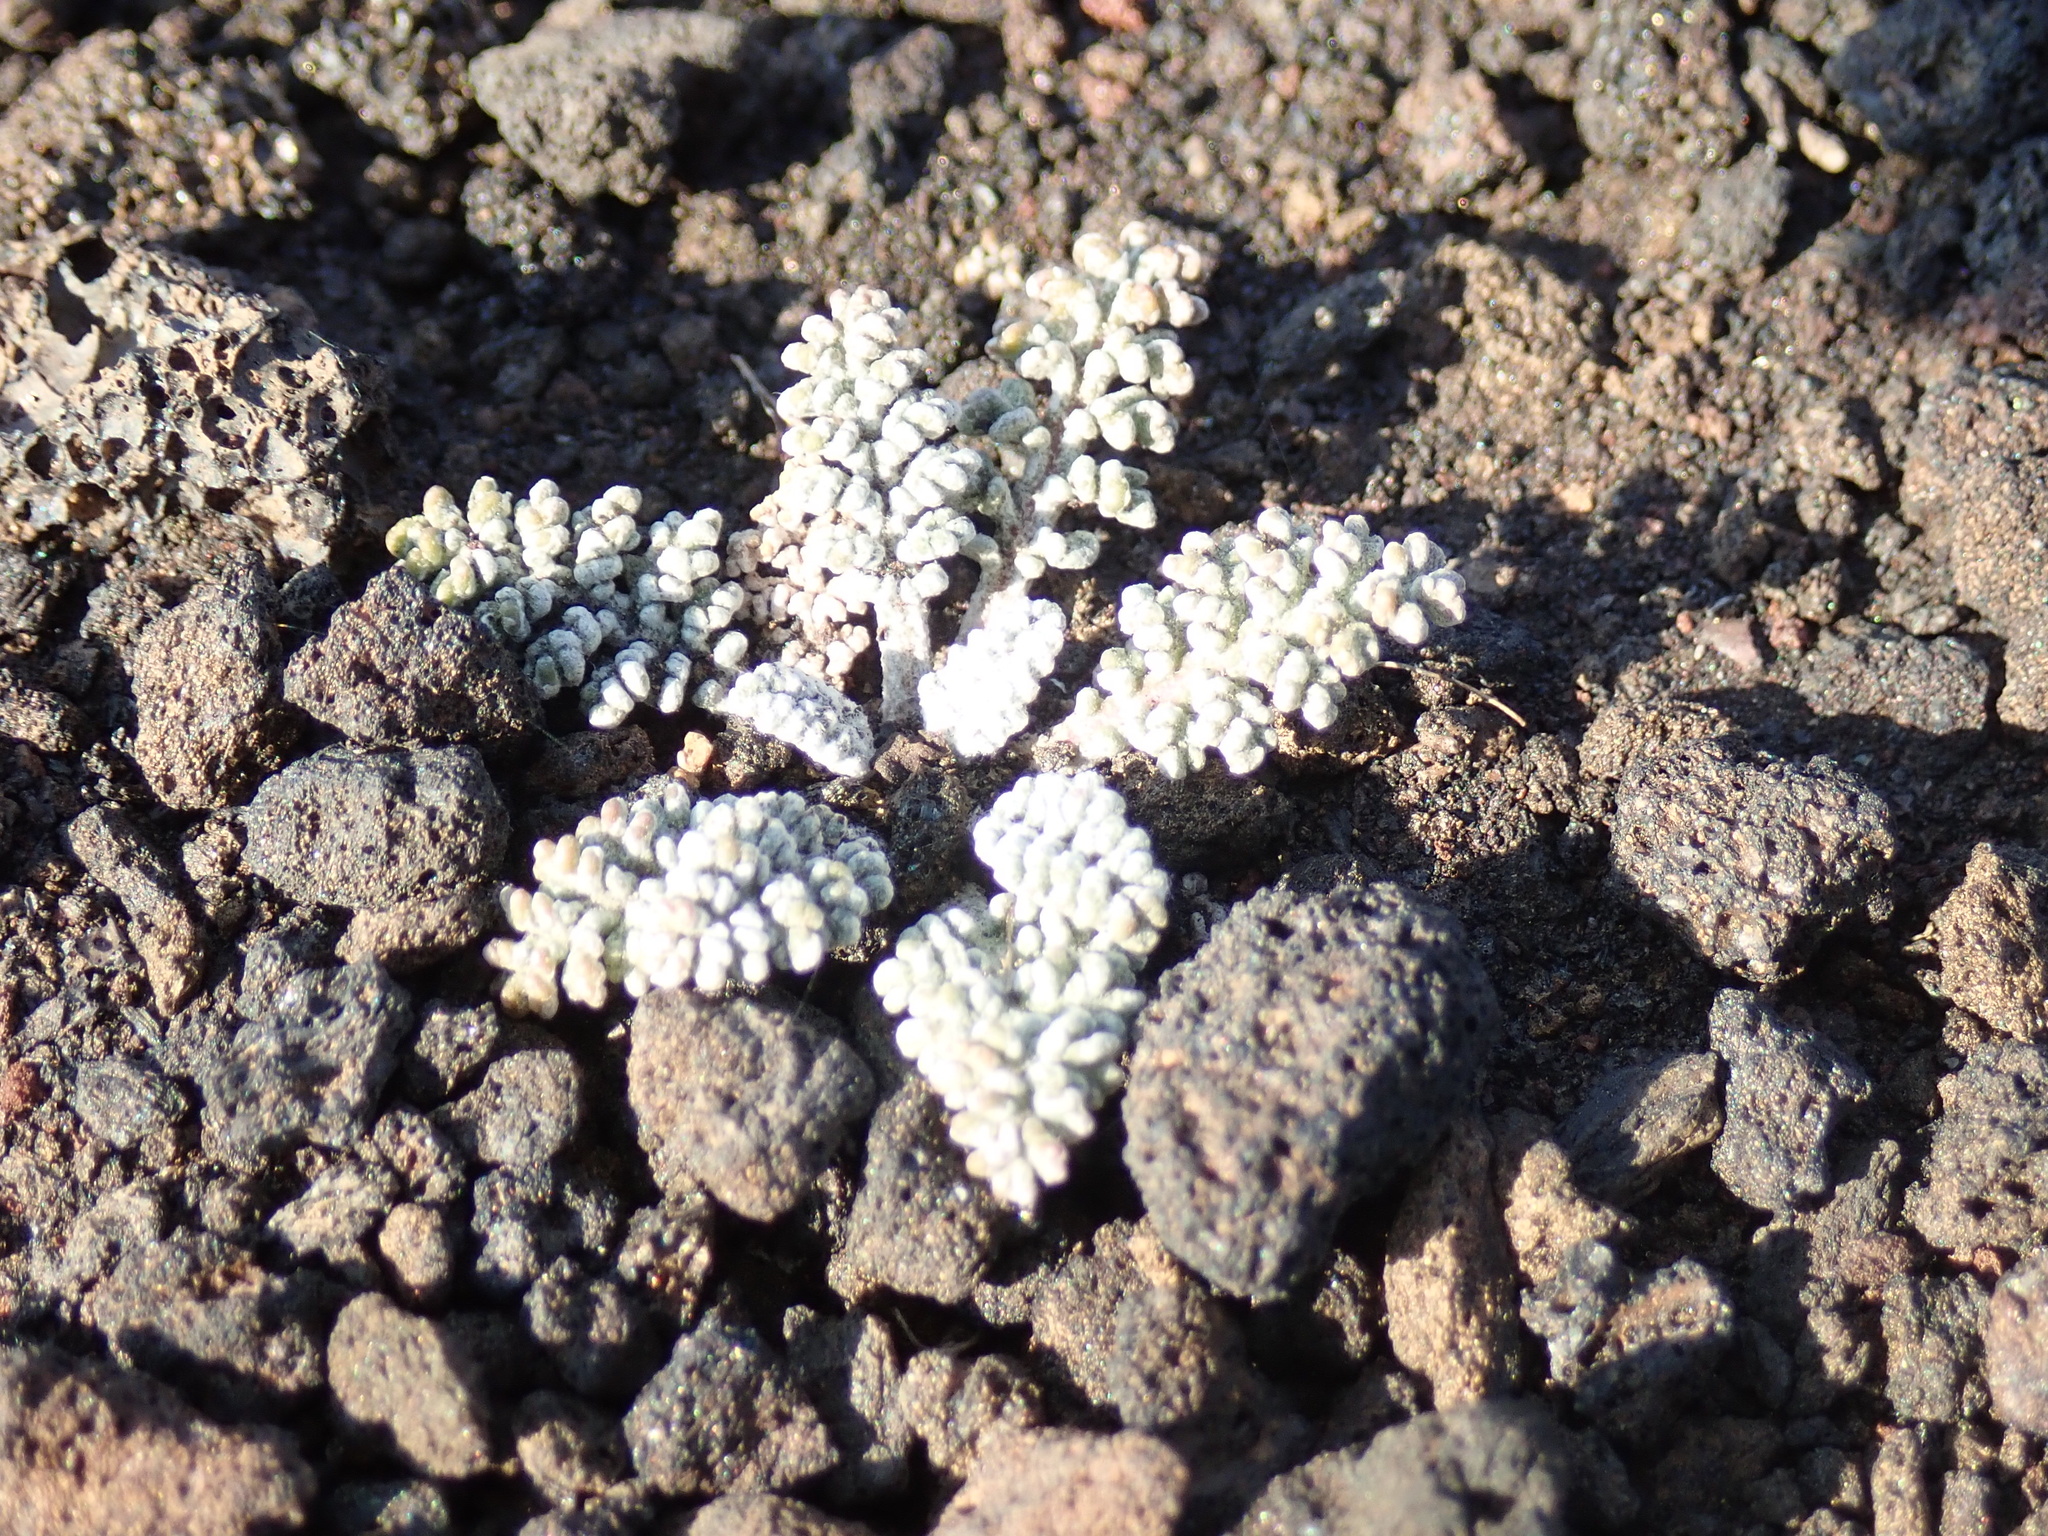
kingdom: Plantae
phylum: Tracheophyta
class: Magnoliopsida
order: Asterales
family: Asteraceae
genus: Chaenactis
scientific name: Chaenactis douglasii
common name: Hoary pincushion
